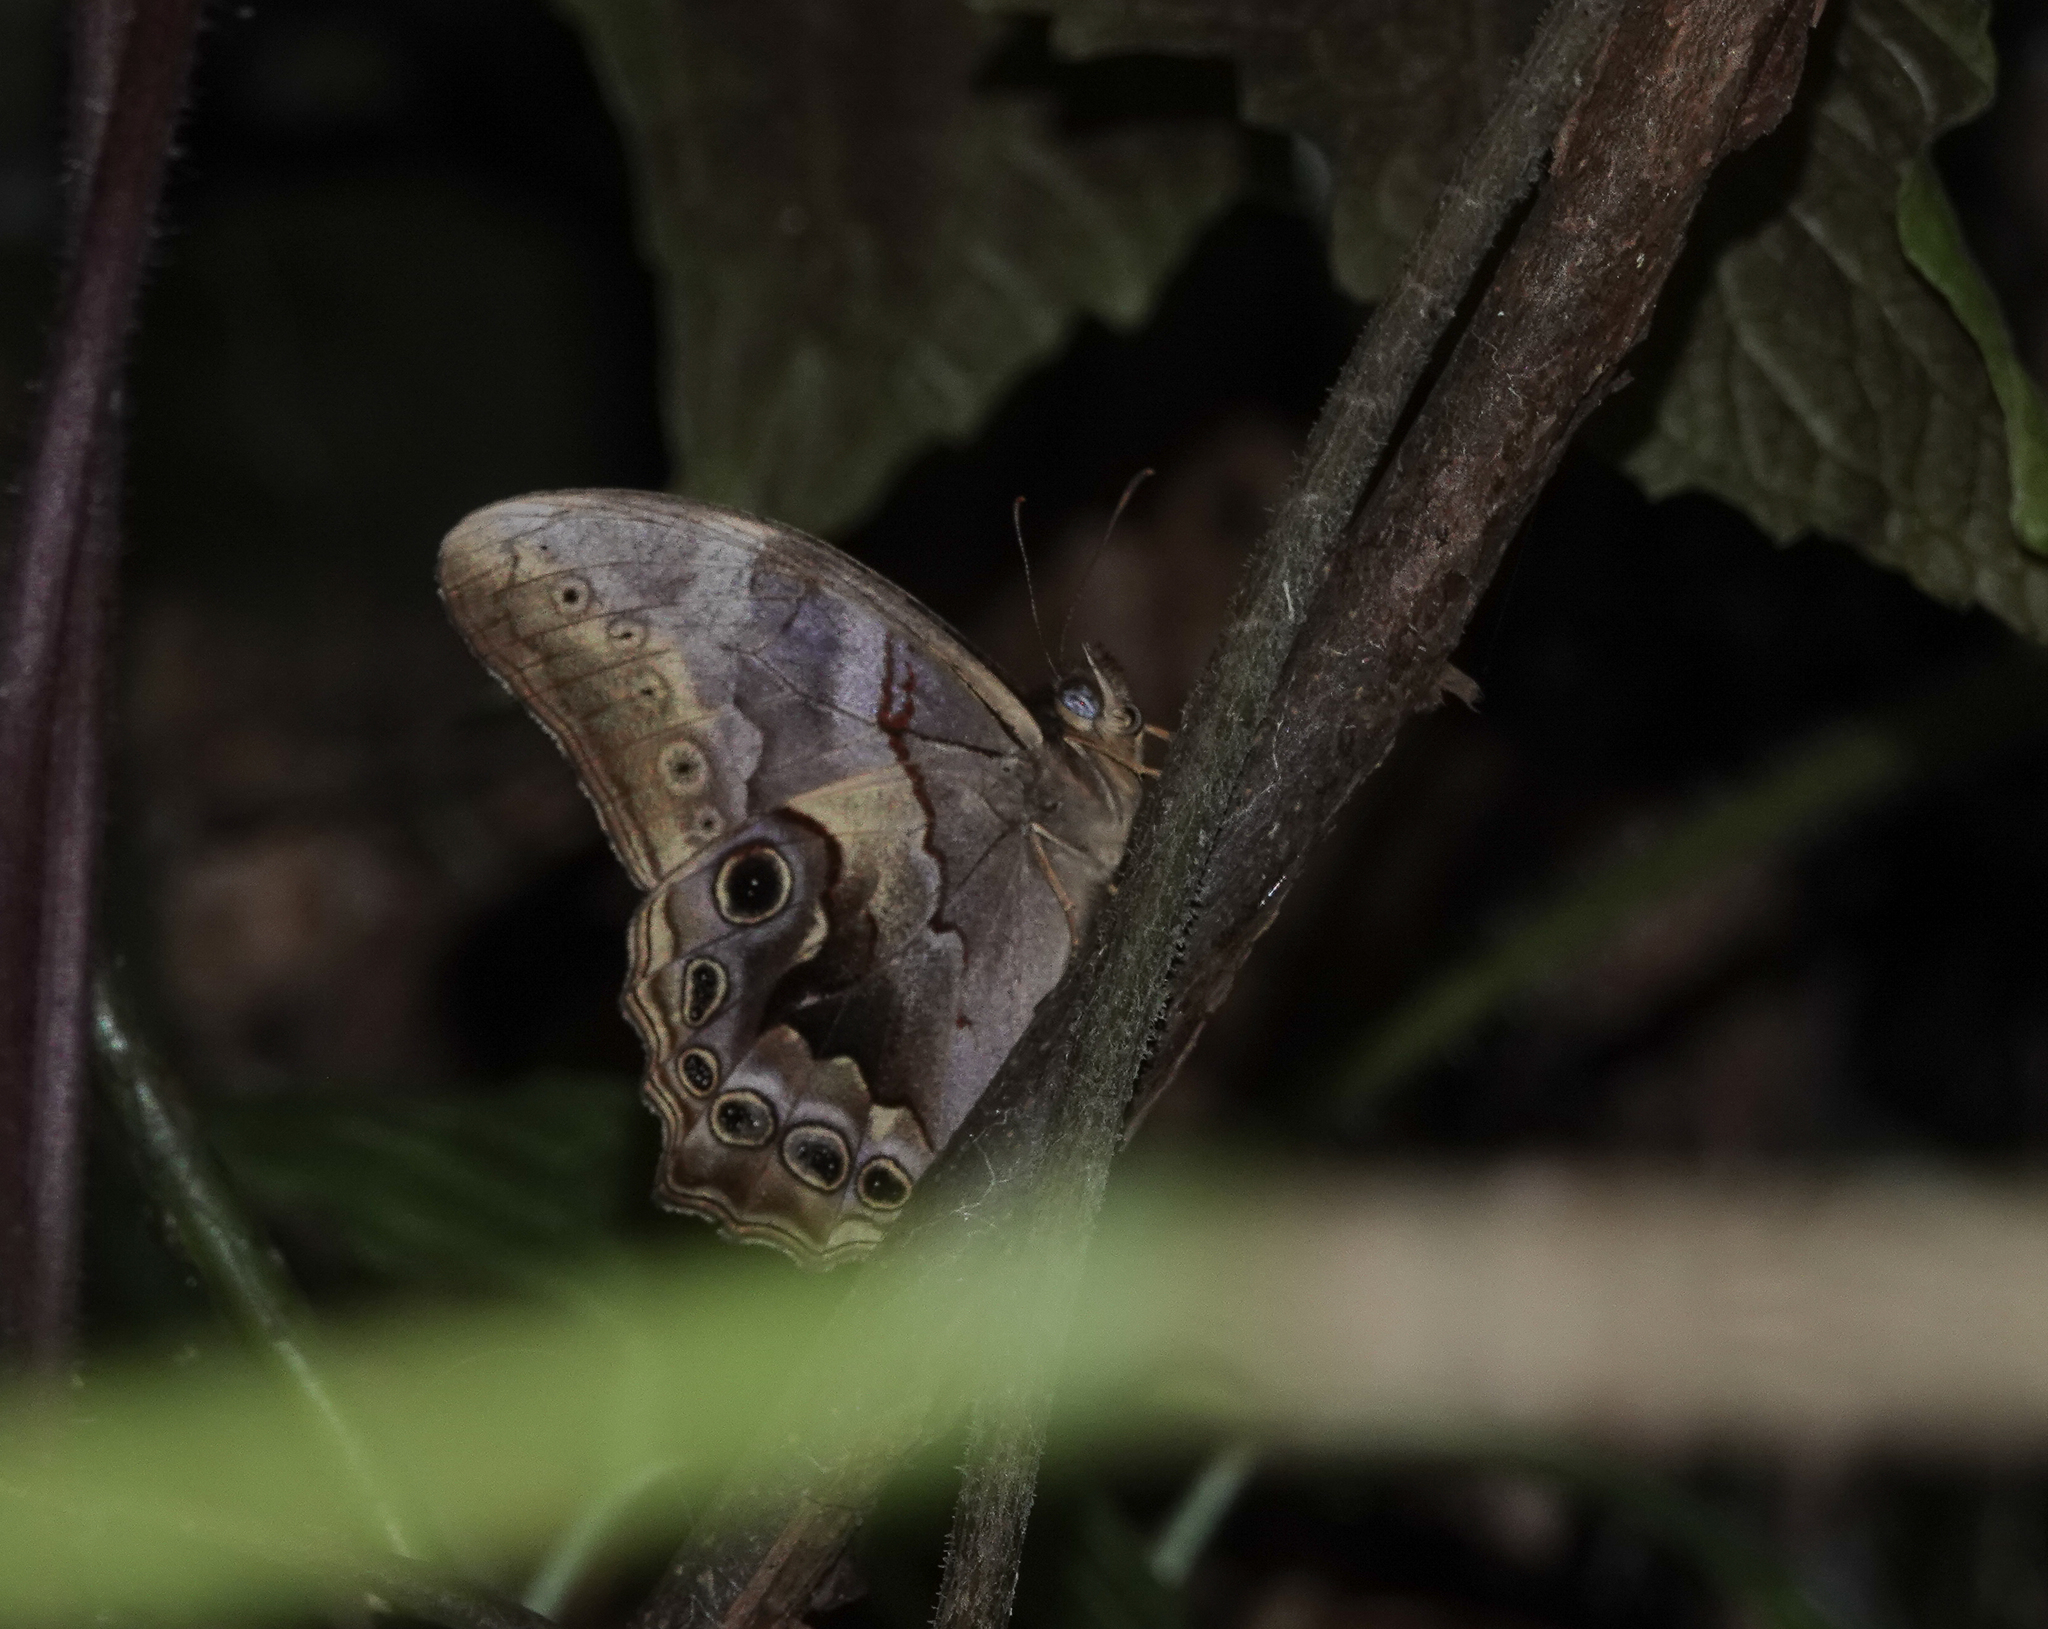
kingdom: Animalia
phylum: Arthropoda
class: Insecta
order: Lepidoptera
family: Nymphalidae
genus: Lethe
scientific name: Lethe chandica
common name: Angled red forester
